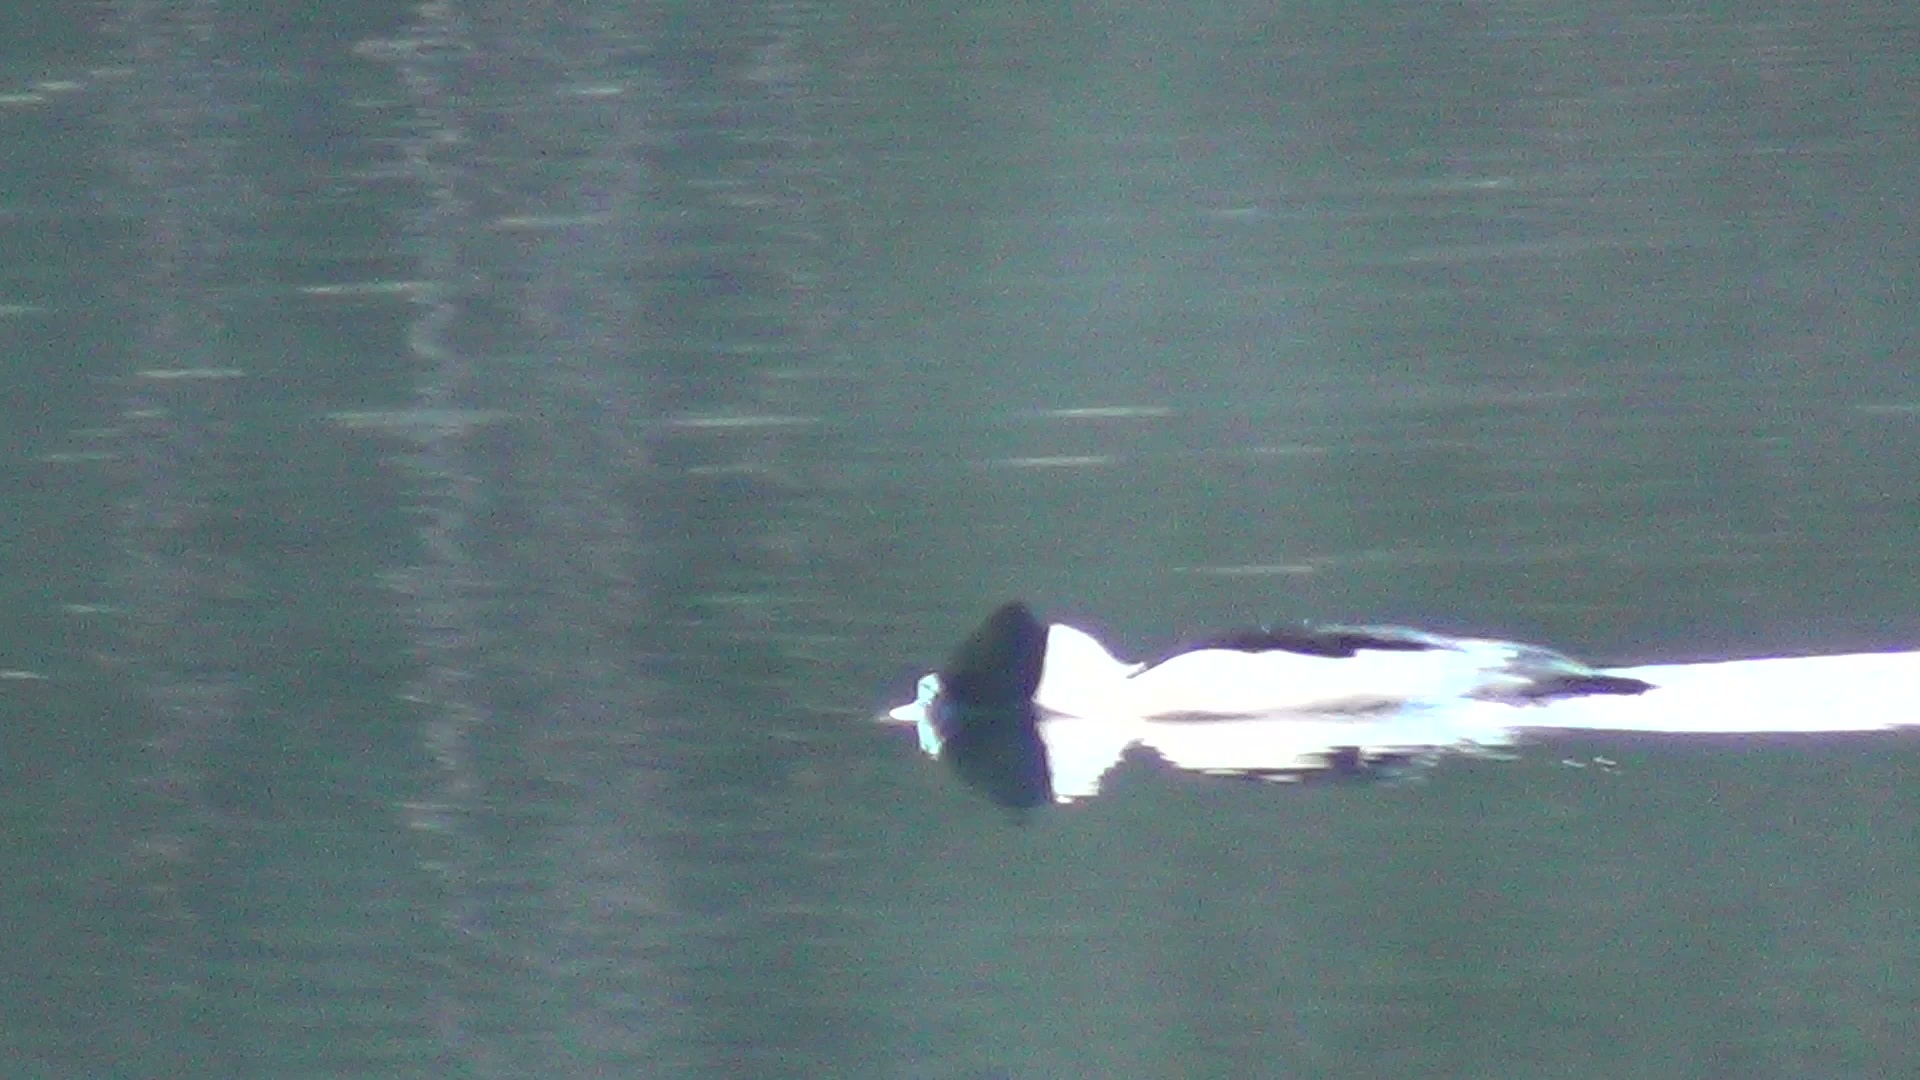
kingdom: Animalia
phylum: Chordata
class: Aves
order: Anseriformes
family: Anatidae
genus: Mergus
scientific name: Mergus merganser
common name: Common merganser
